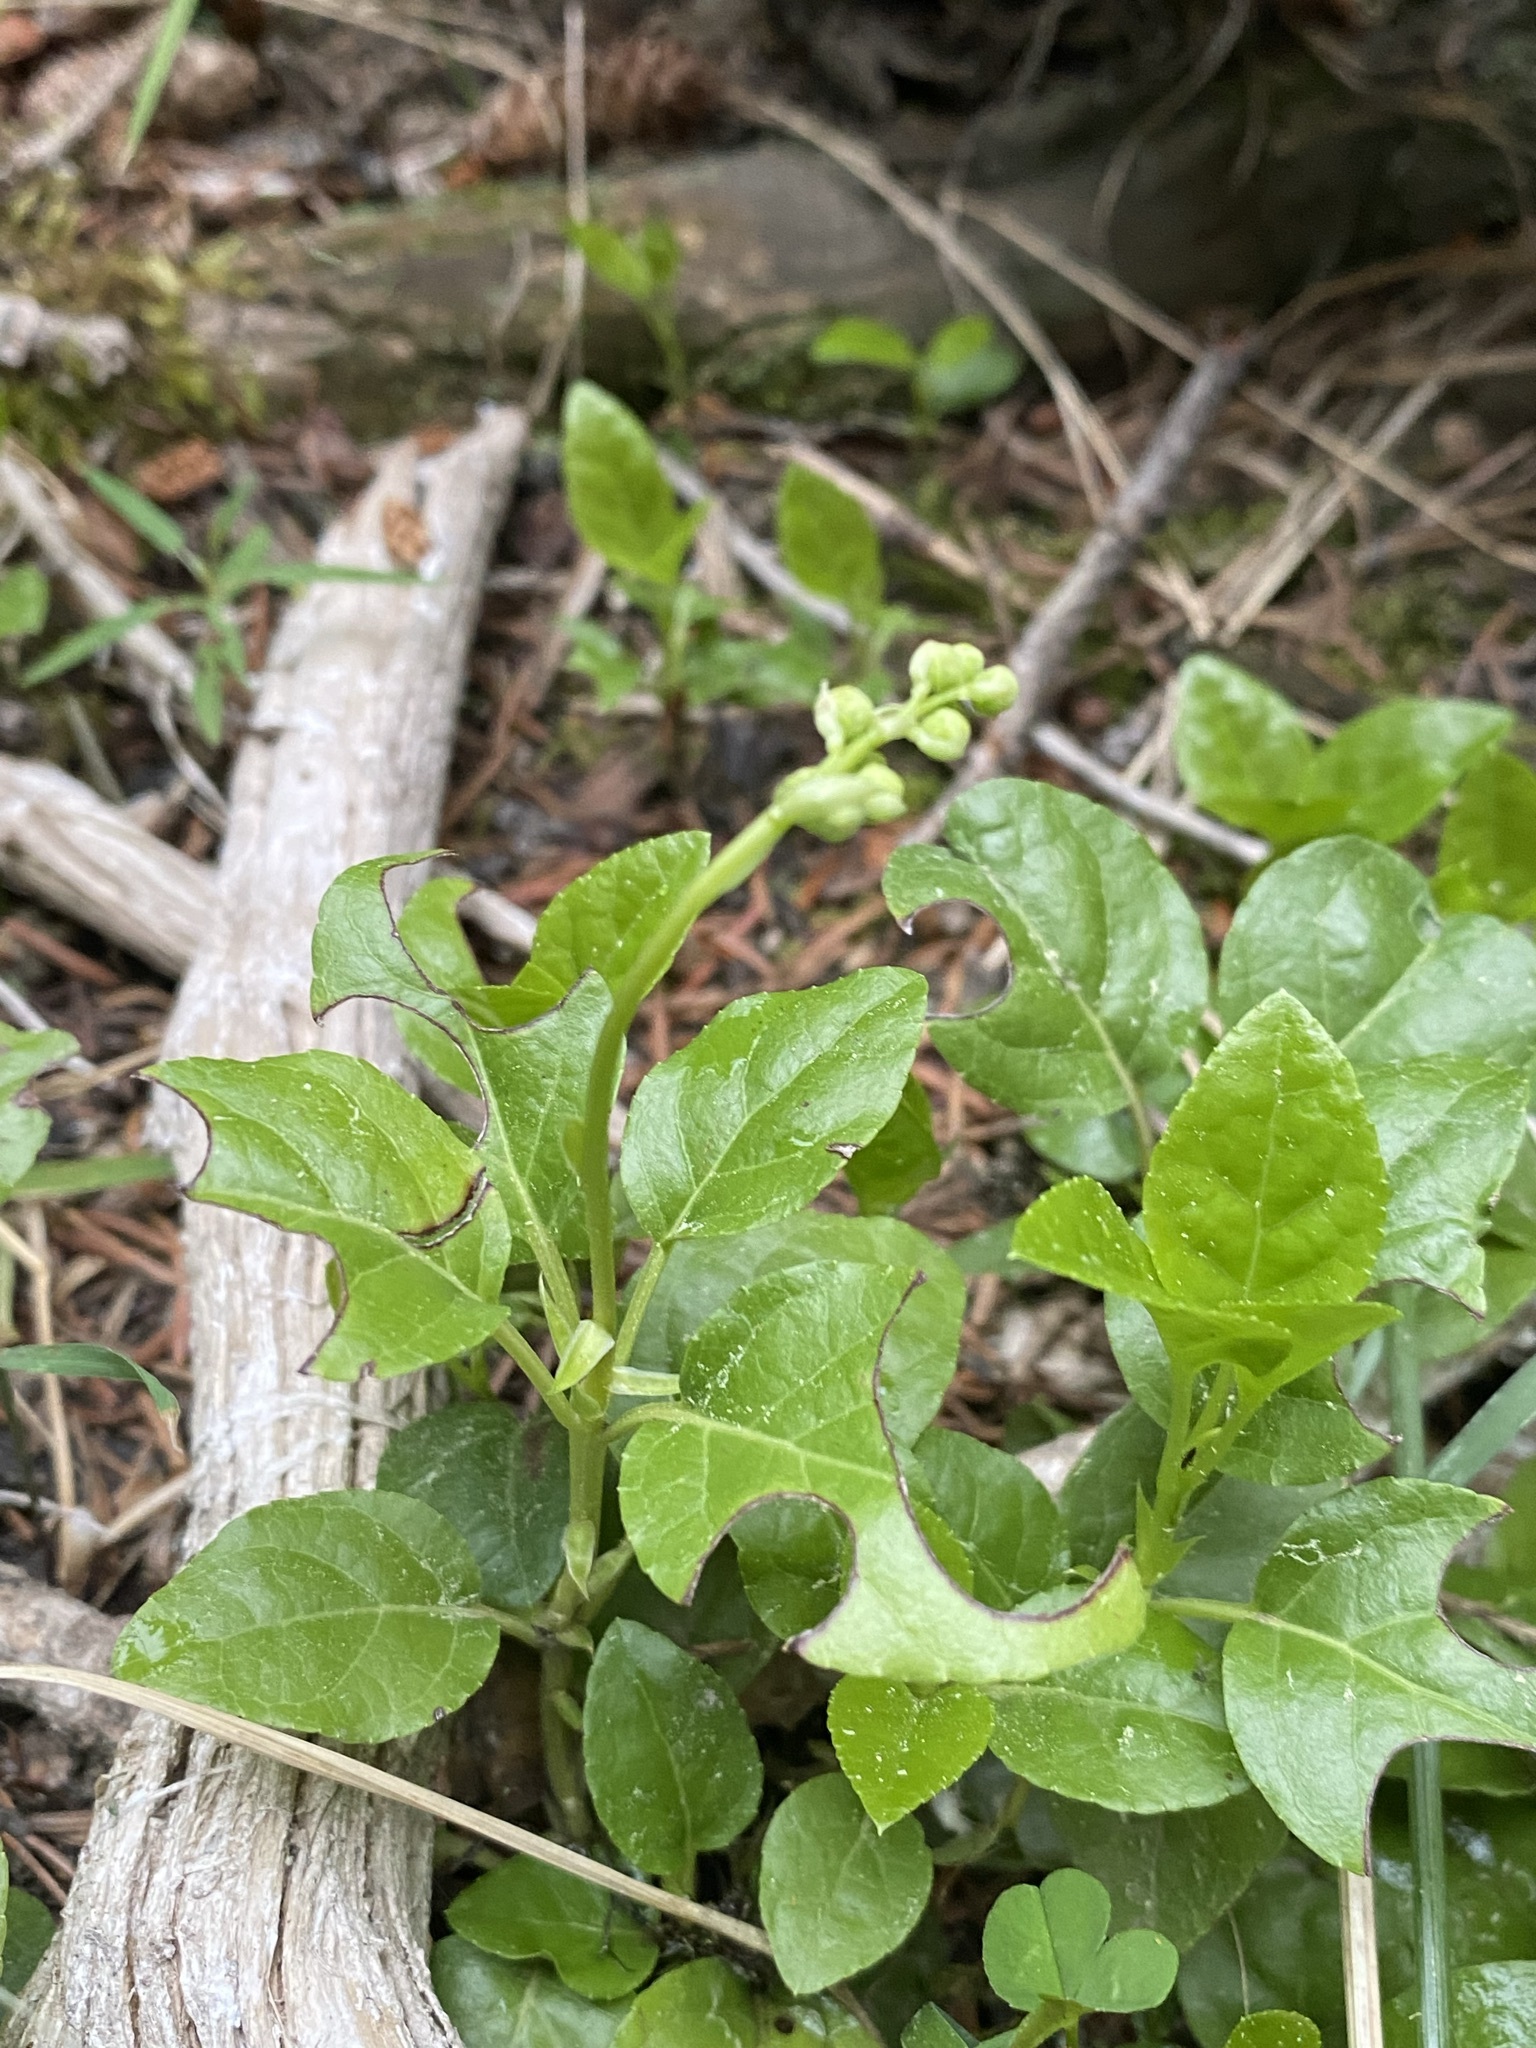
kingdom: Plantae
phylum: Tracheophyta
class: Magnoliopsida
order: Ericales
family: Ericaceae
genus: Orthilia
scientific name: Orthilia secunda
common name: One-sided orthilia
